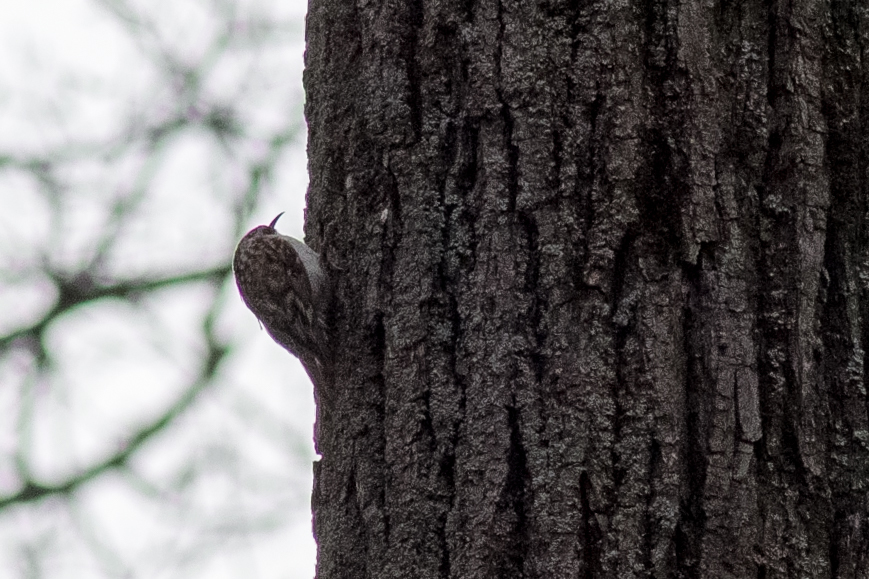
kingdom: Animalia
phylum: Chordata
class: Aves
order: Passeriformes
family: Certhiidae
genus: Certhia
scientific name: Certhia familiaris
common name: Eurasian treecreeper
